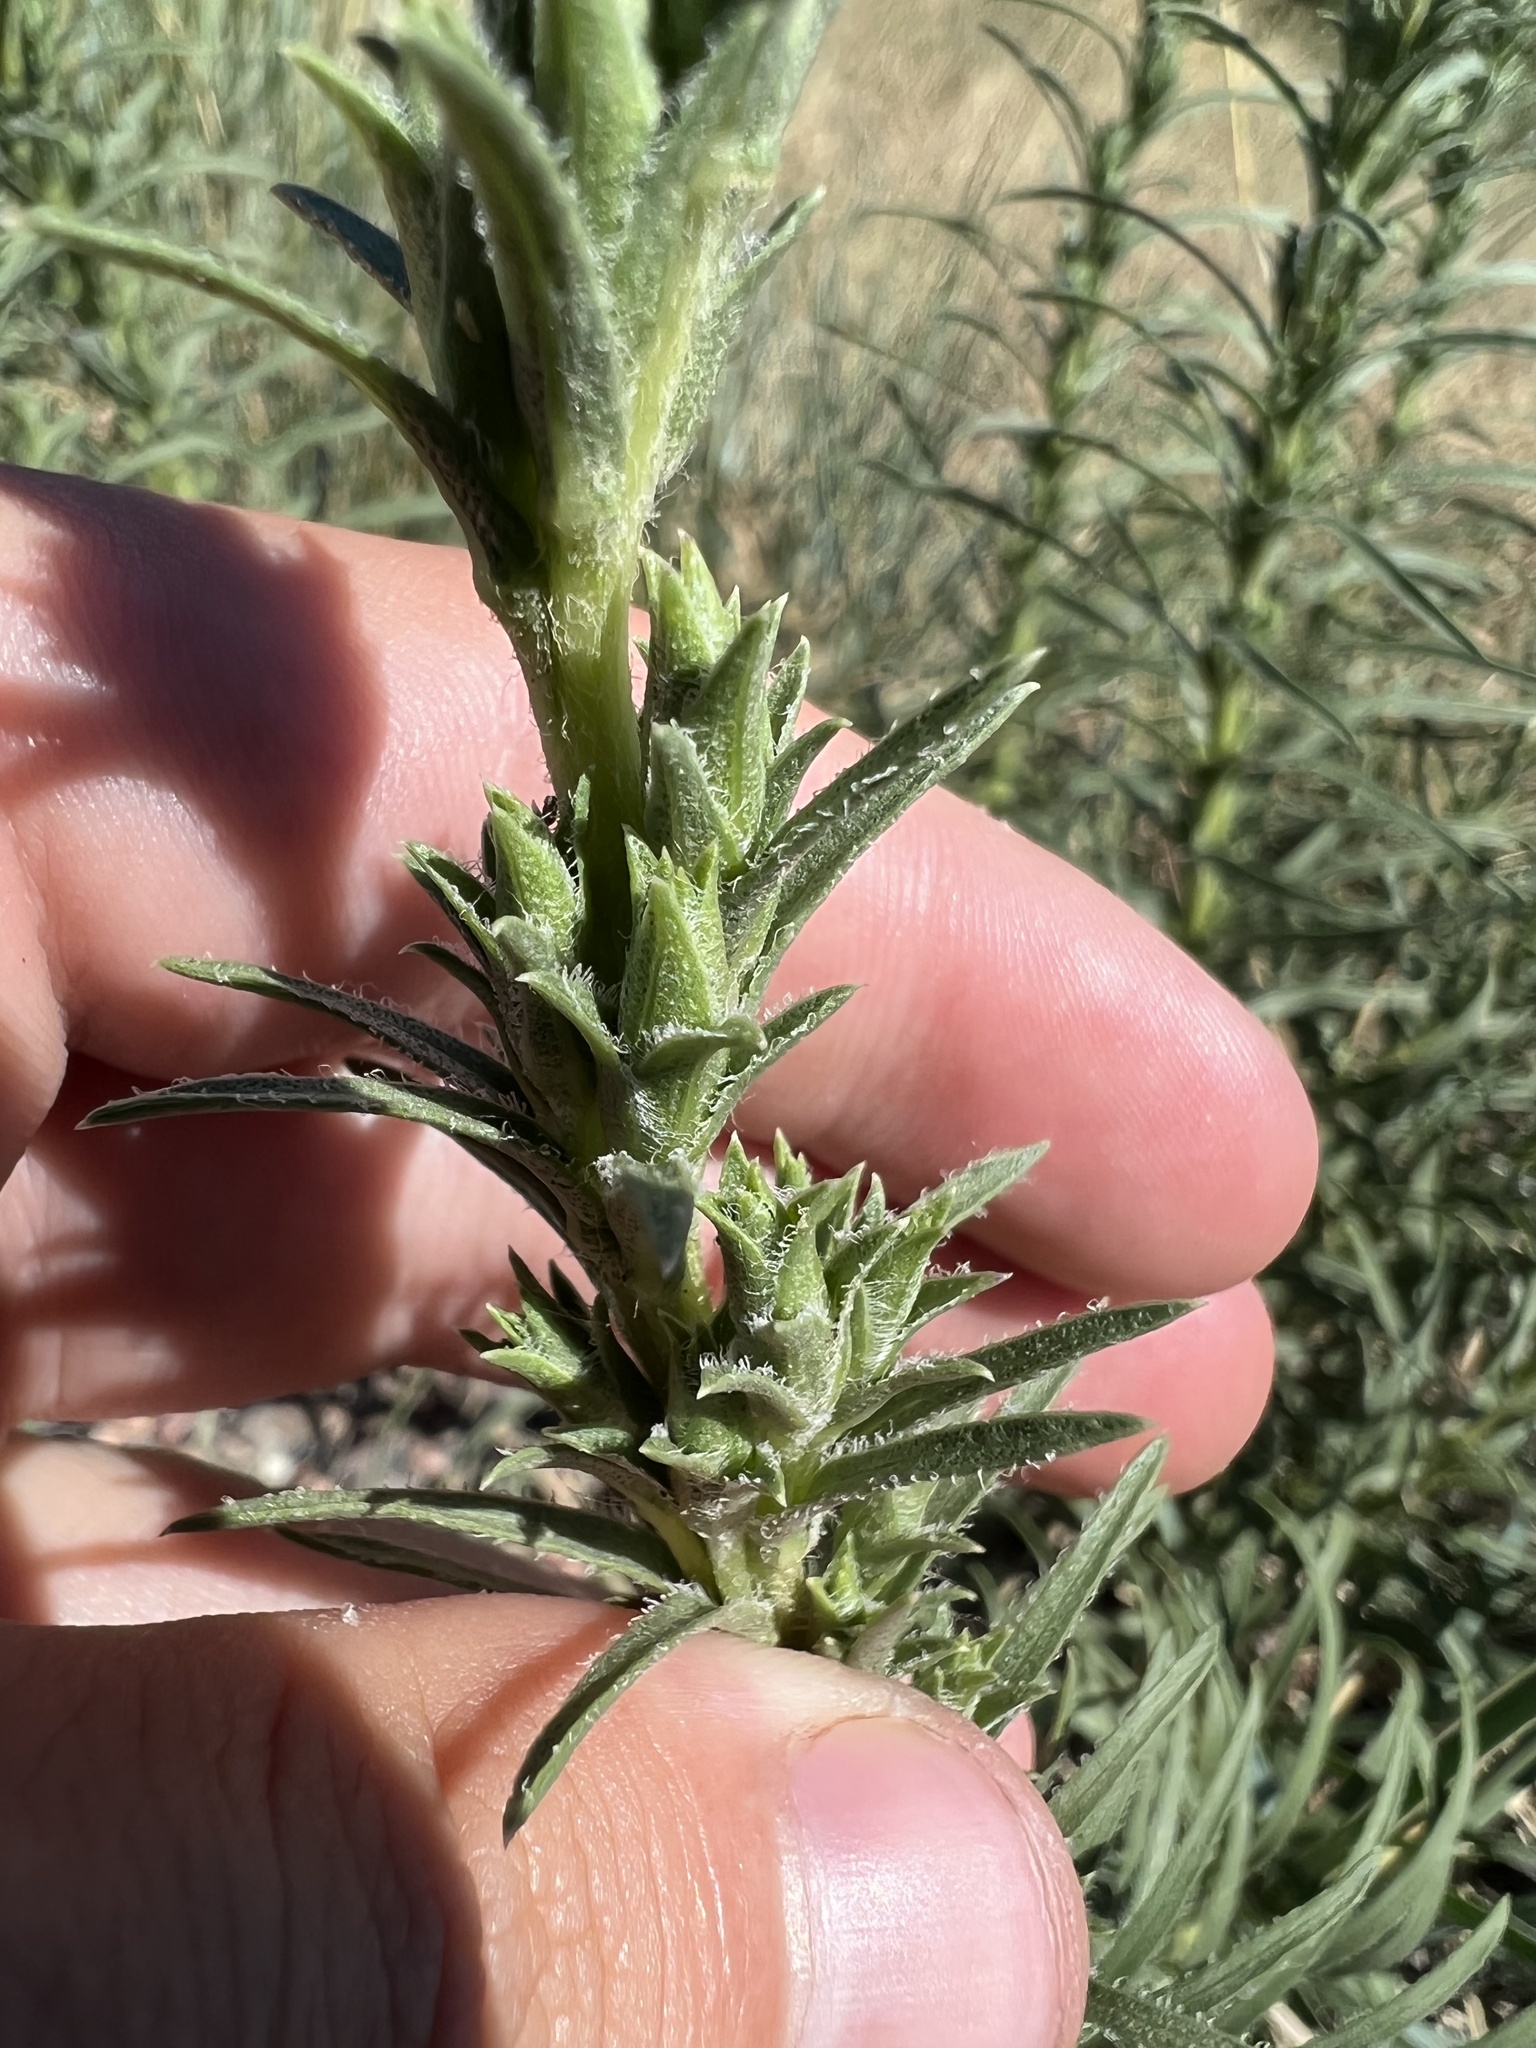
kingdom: Plantae
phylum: Tracheophyta
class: Magnoliopsida
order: Asterales
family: Asteraceae
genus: Liatris
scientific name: Liatris punctata
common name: Dotted gayfeather
